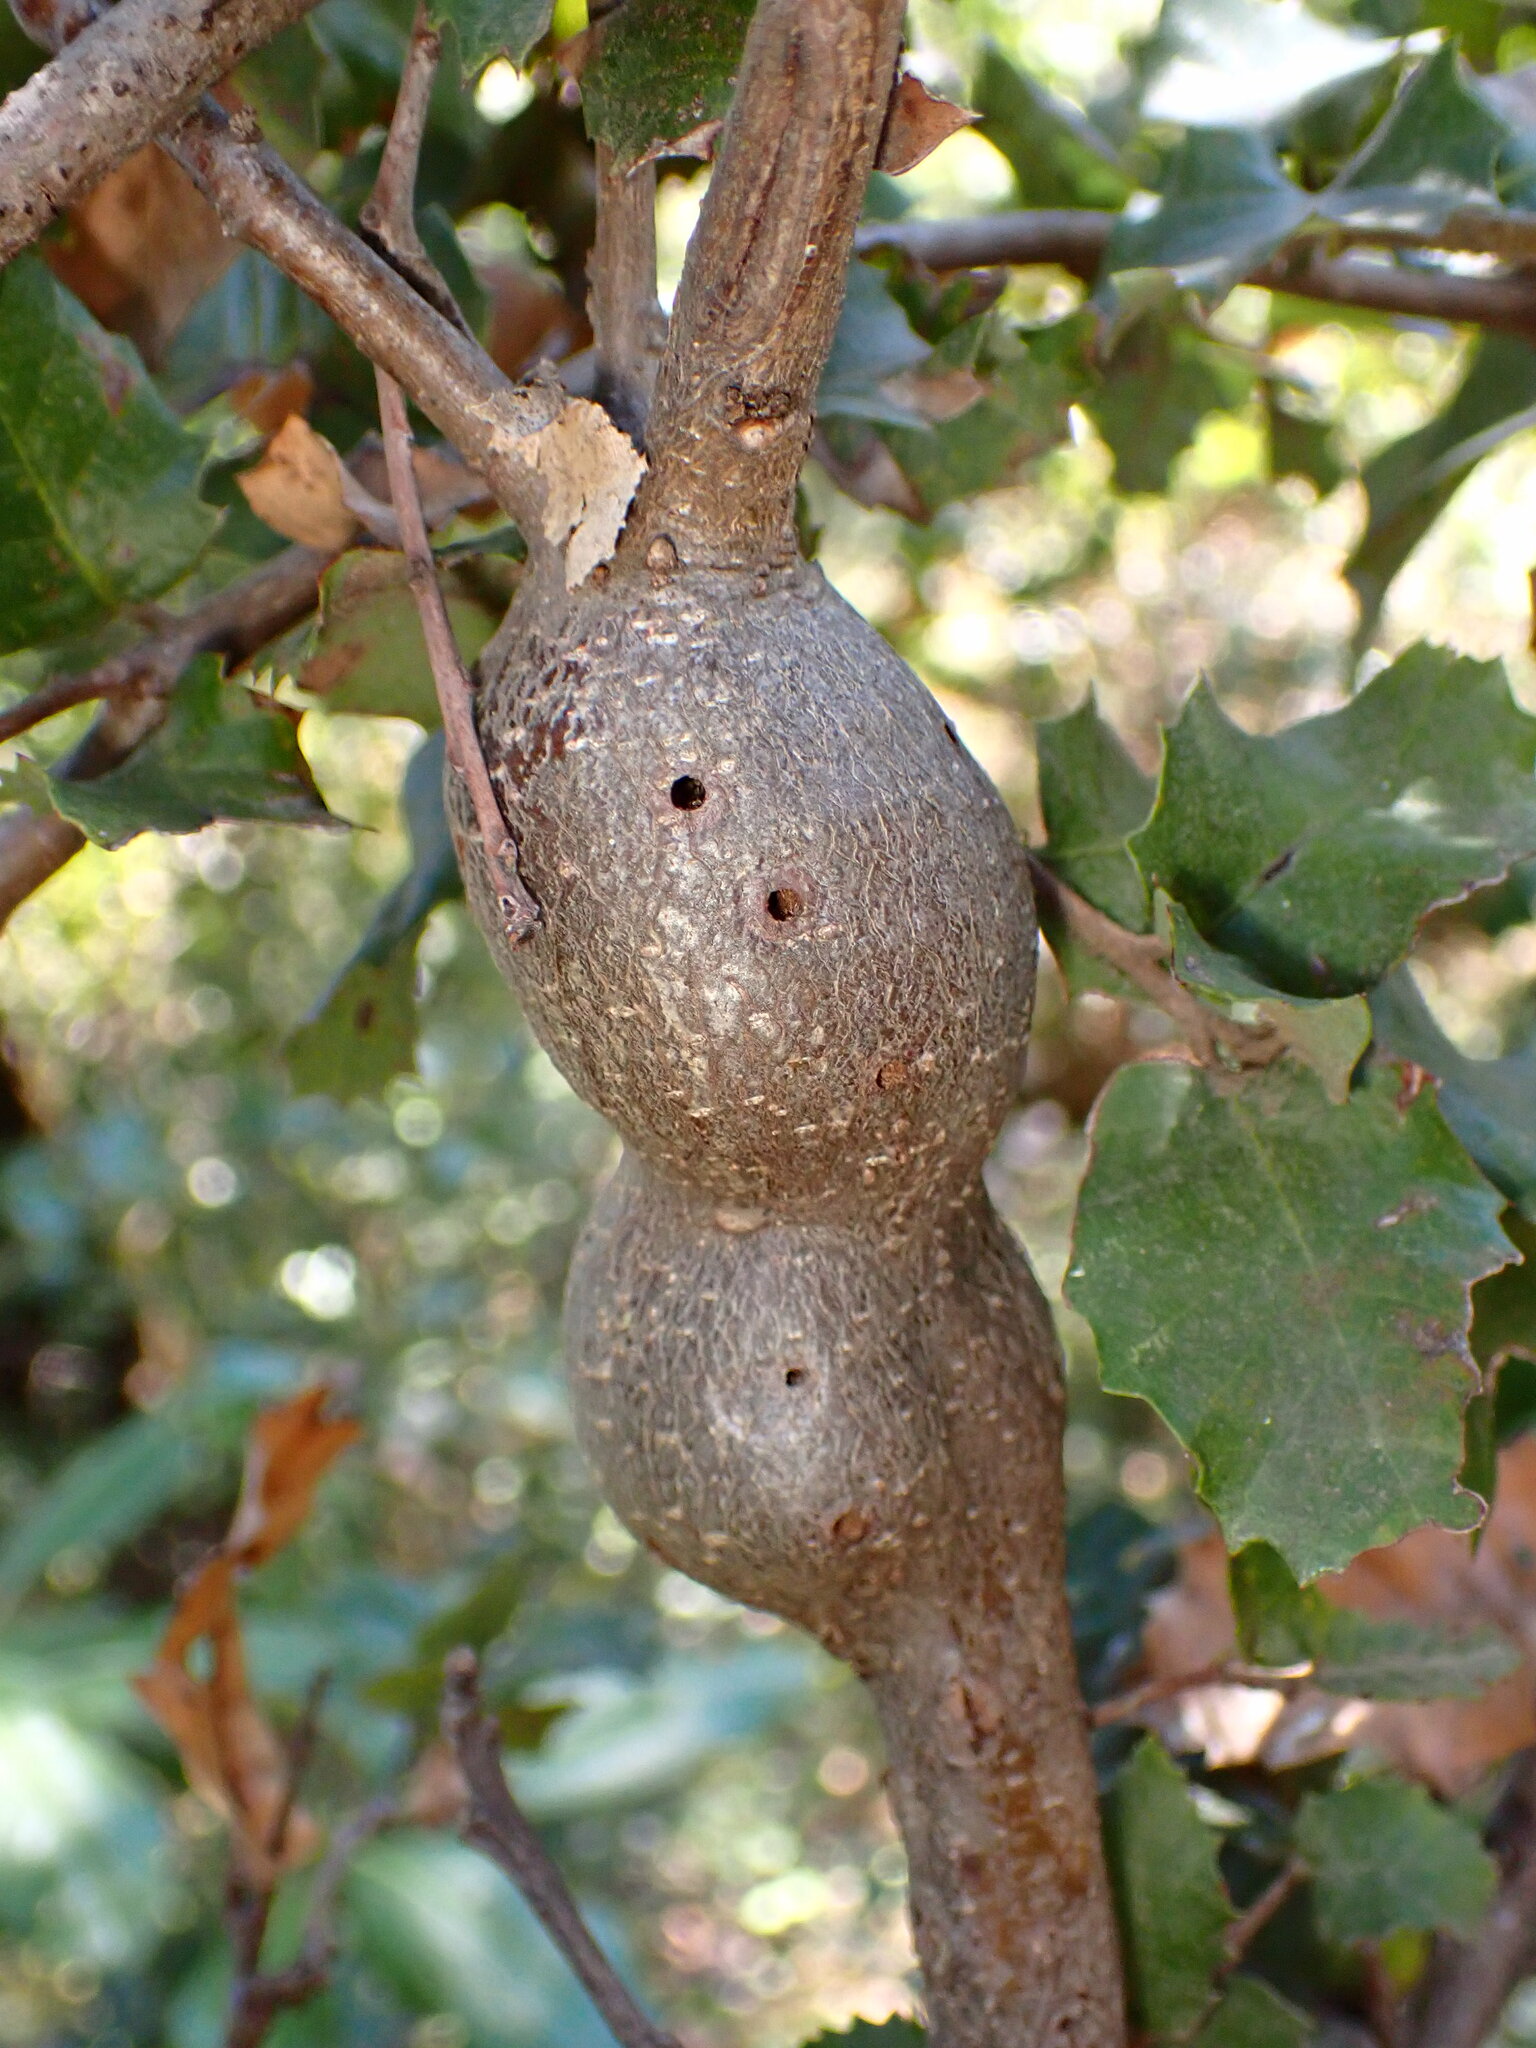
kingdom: Animalia
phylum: Arthropoda
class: Insecta
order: Hymenoptera
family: Cynipidae
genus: Disholcaspis
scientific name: Disholcaspis spectabilis
